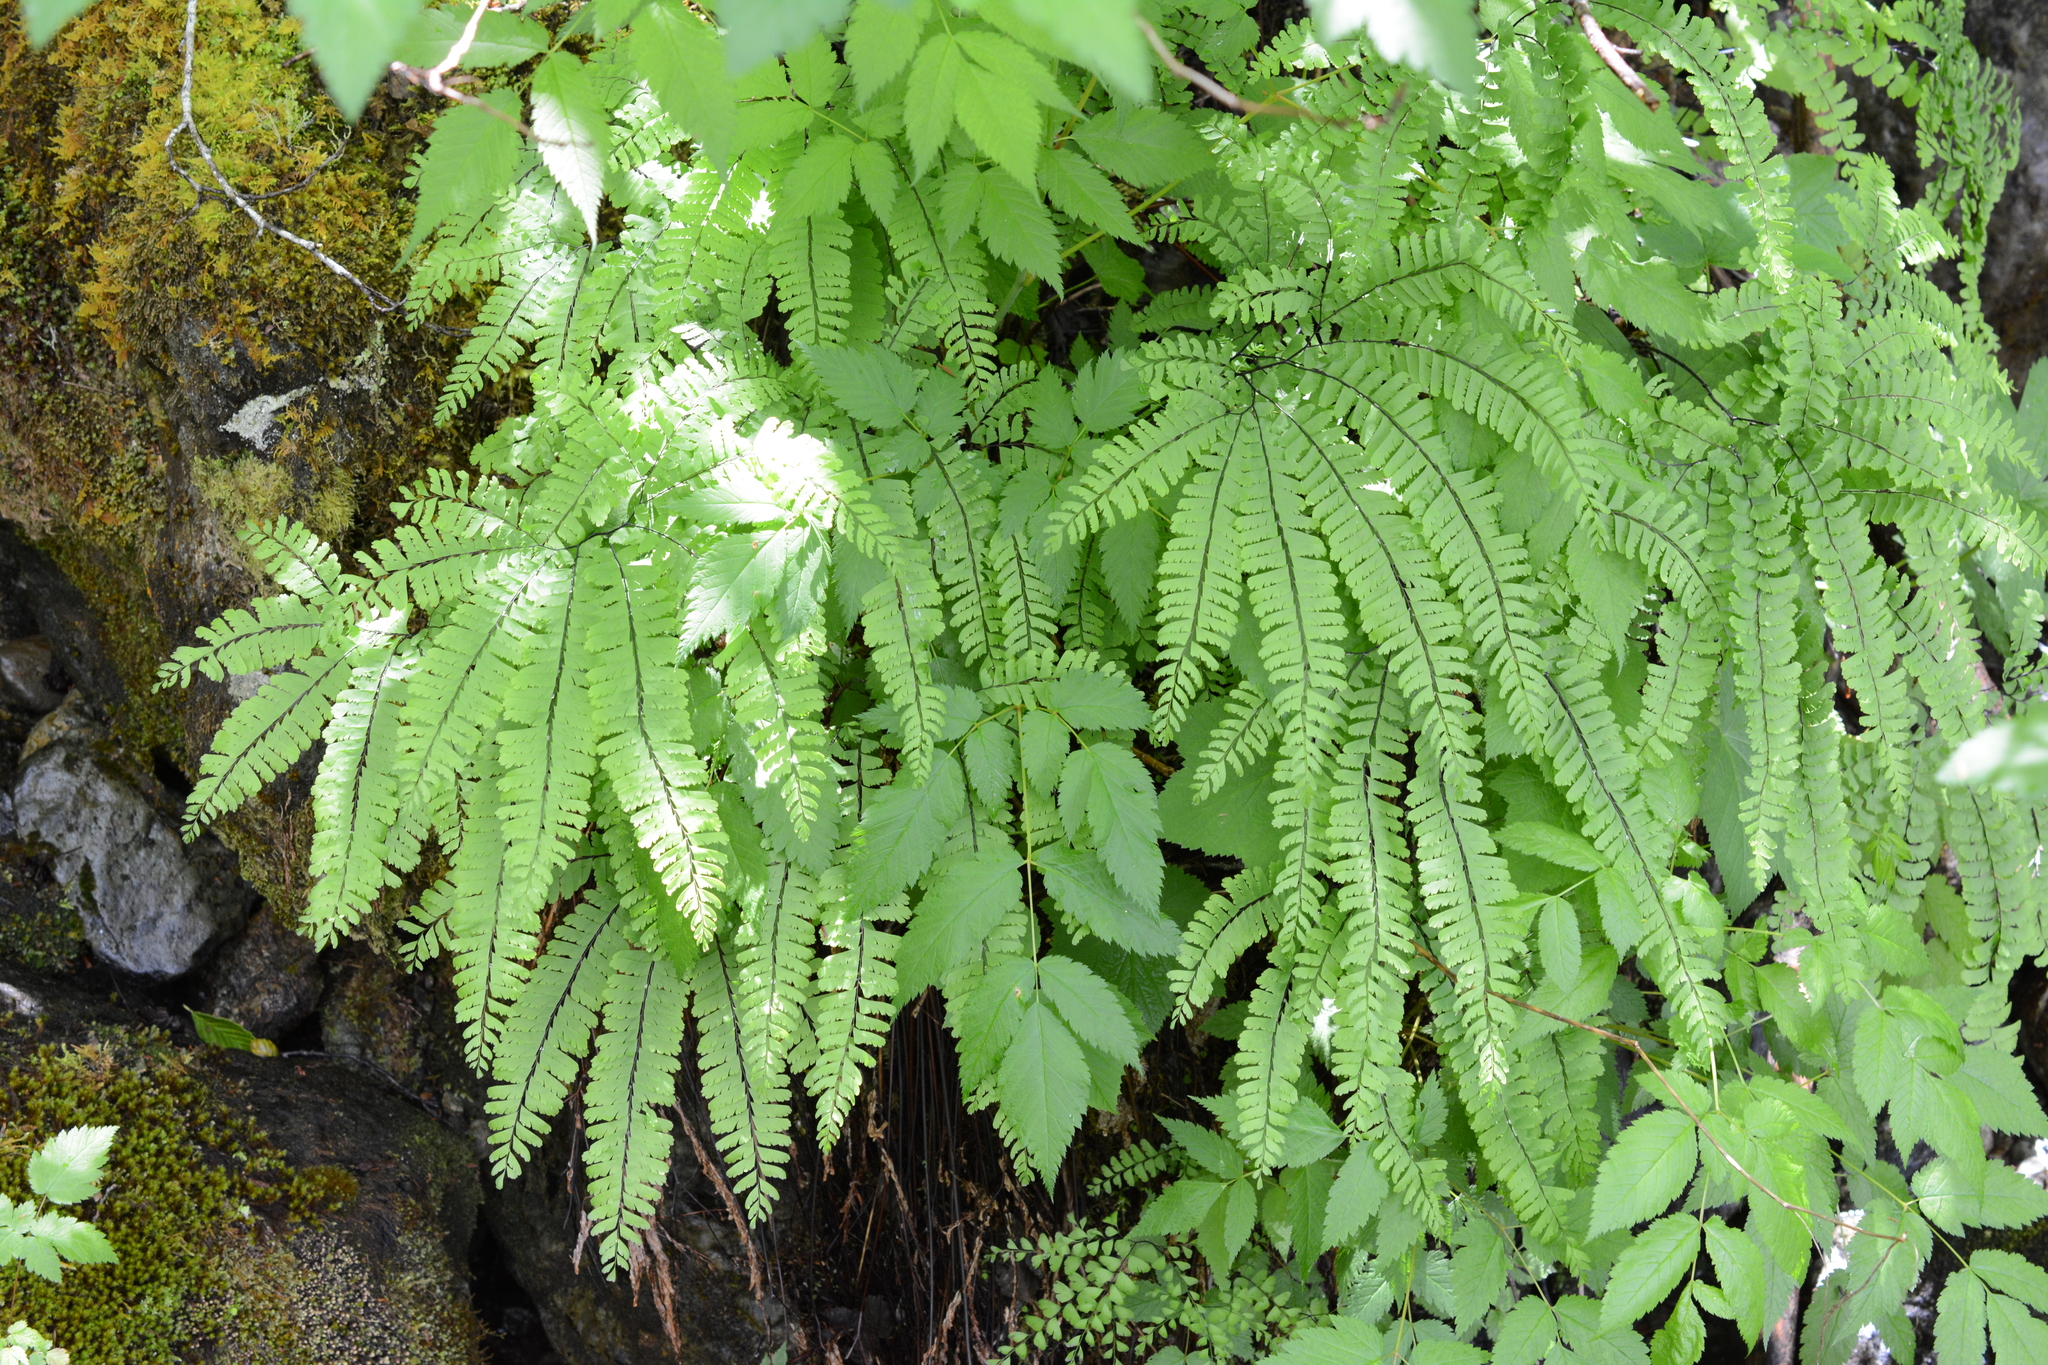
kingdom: Plantae
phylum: Tracheophyta
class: Polypodiopsida
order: Polypodiales
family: Pteridaceae
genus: Adiantum
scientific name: Adiantum aleuticum
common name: Aleutian maidenhair fern
